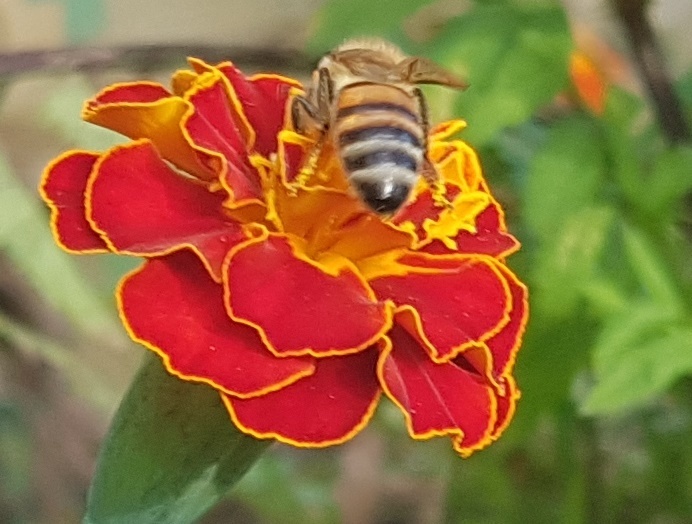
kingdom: Animalia
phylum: Arthropoda
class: Insecta
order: Hymenoptera
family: Apidae
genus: Apis
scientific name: Apis mellifera
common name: Honey bee
